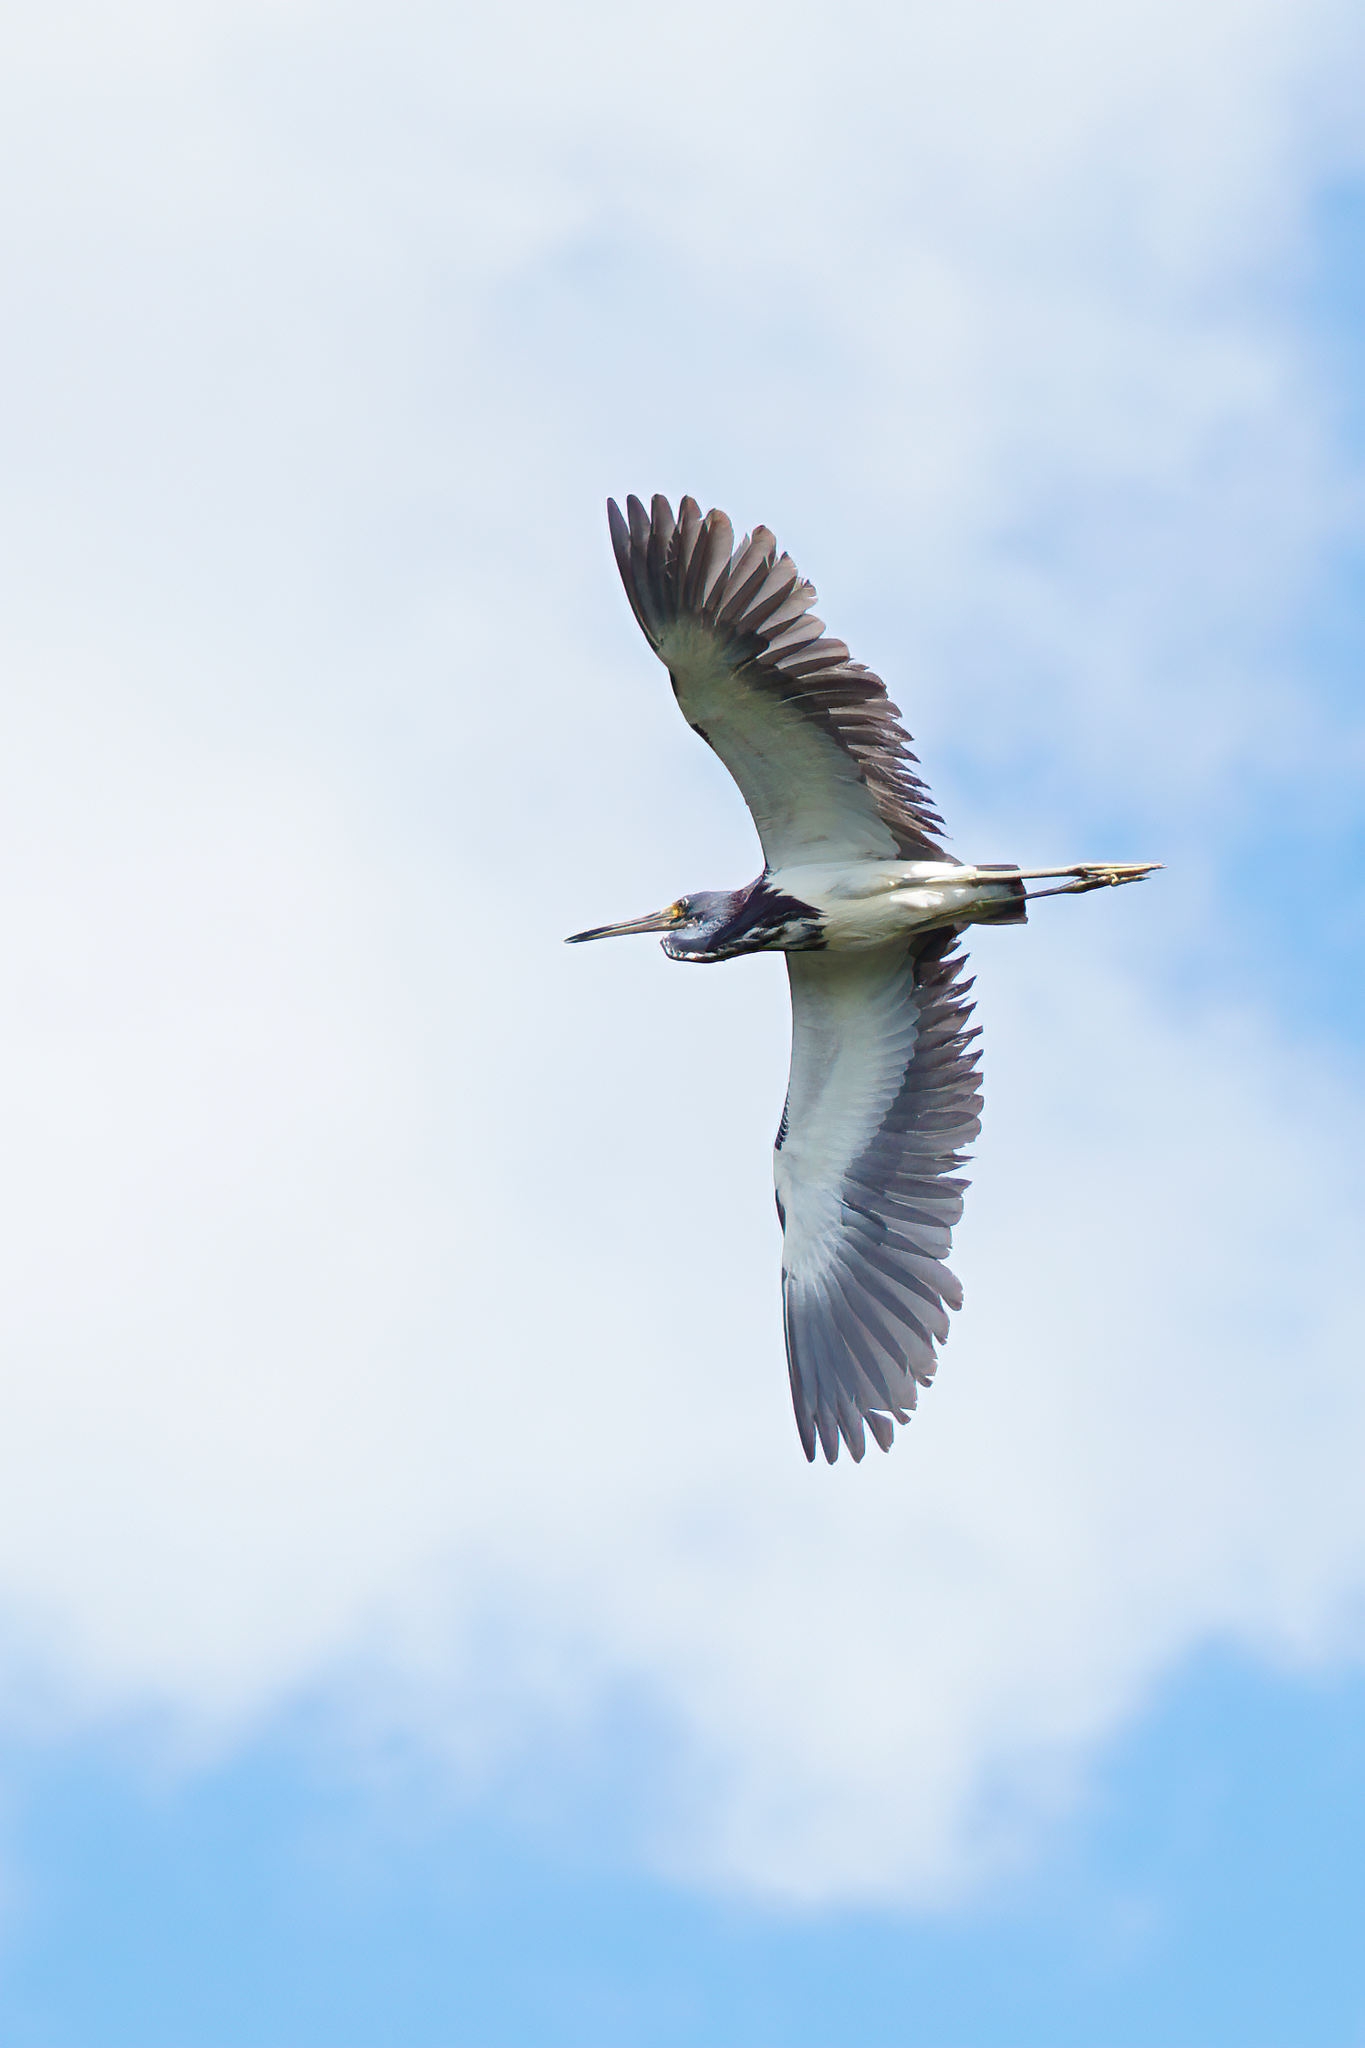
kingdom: Animalia
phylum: Chordata
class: Aves
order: Pelecaniformes
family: Ardeidae
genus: Egretta
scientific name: Egretta tricolor
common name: Tricolored heron
